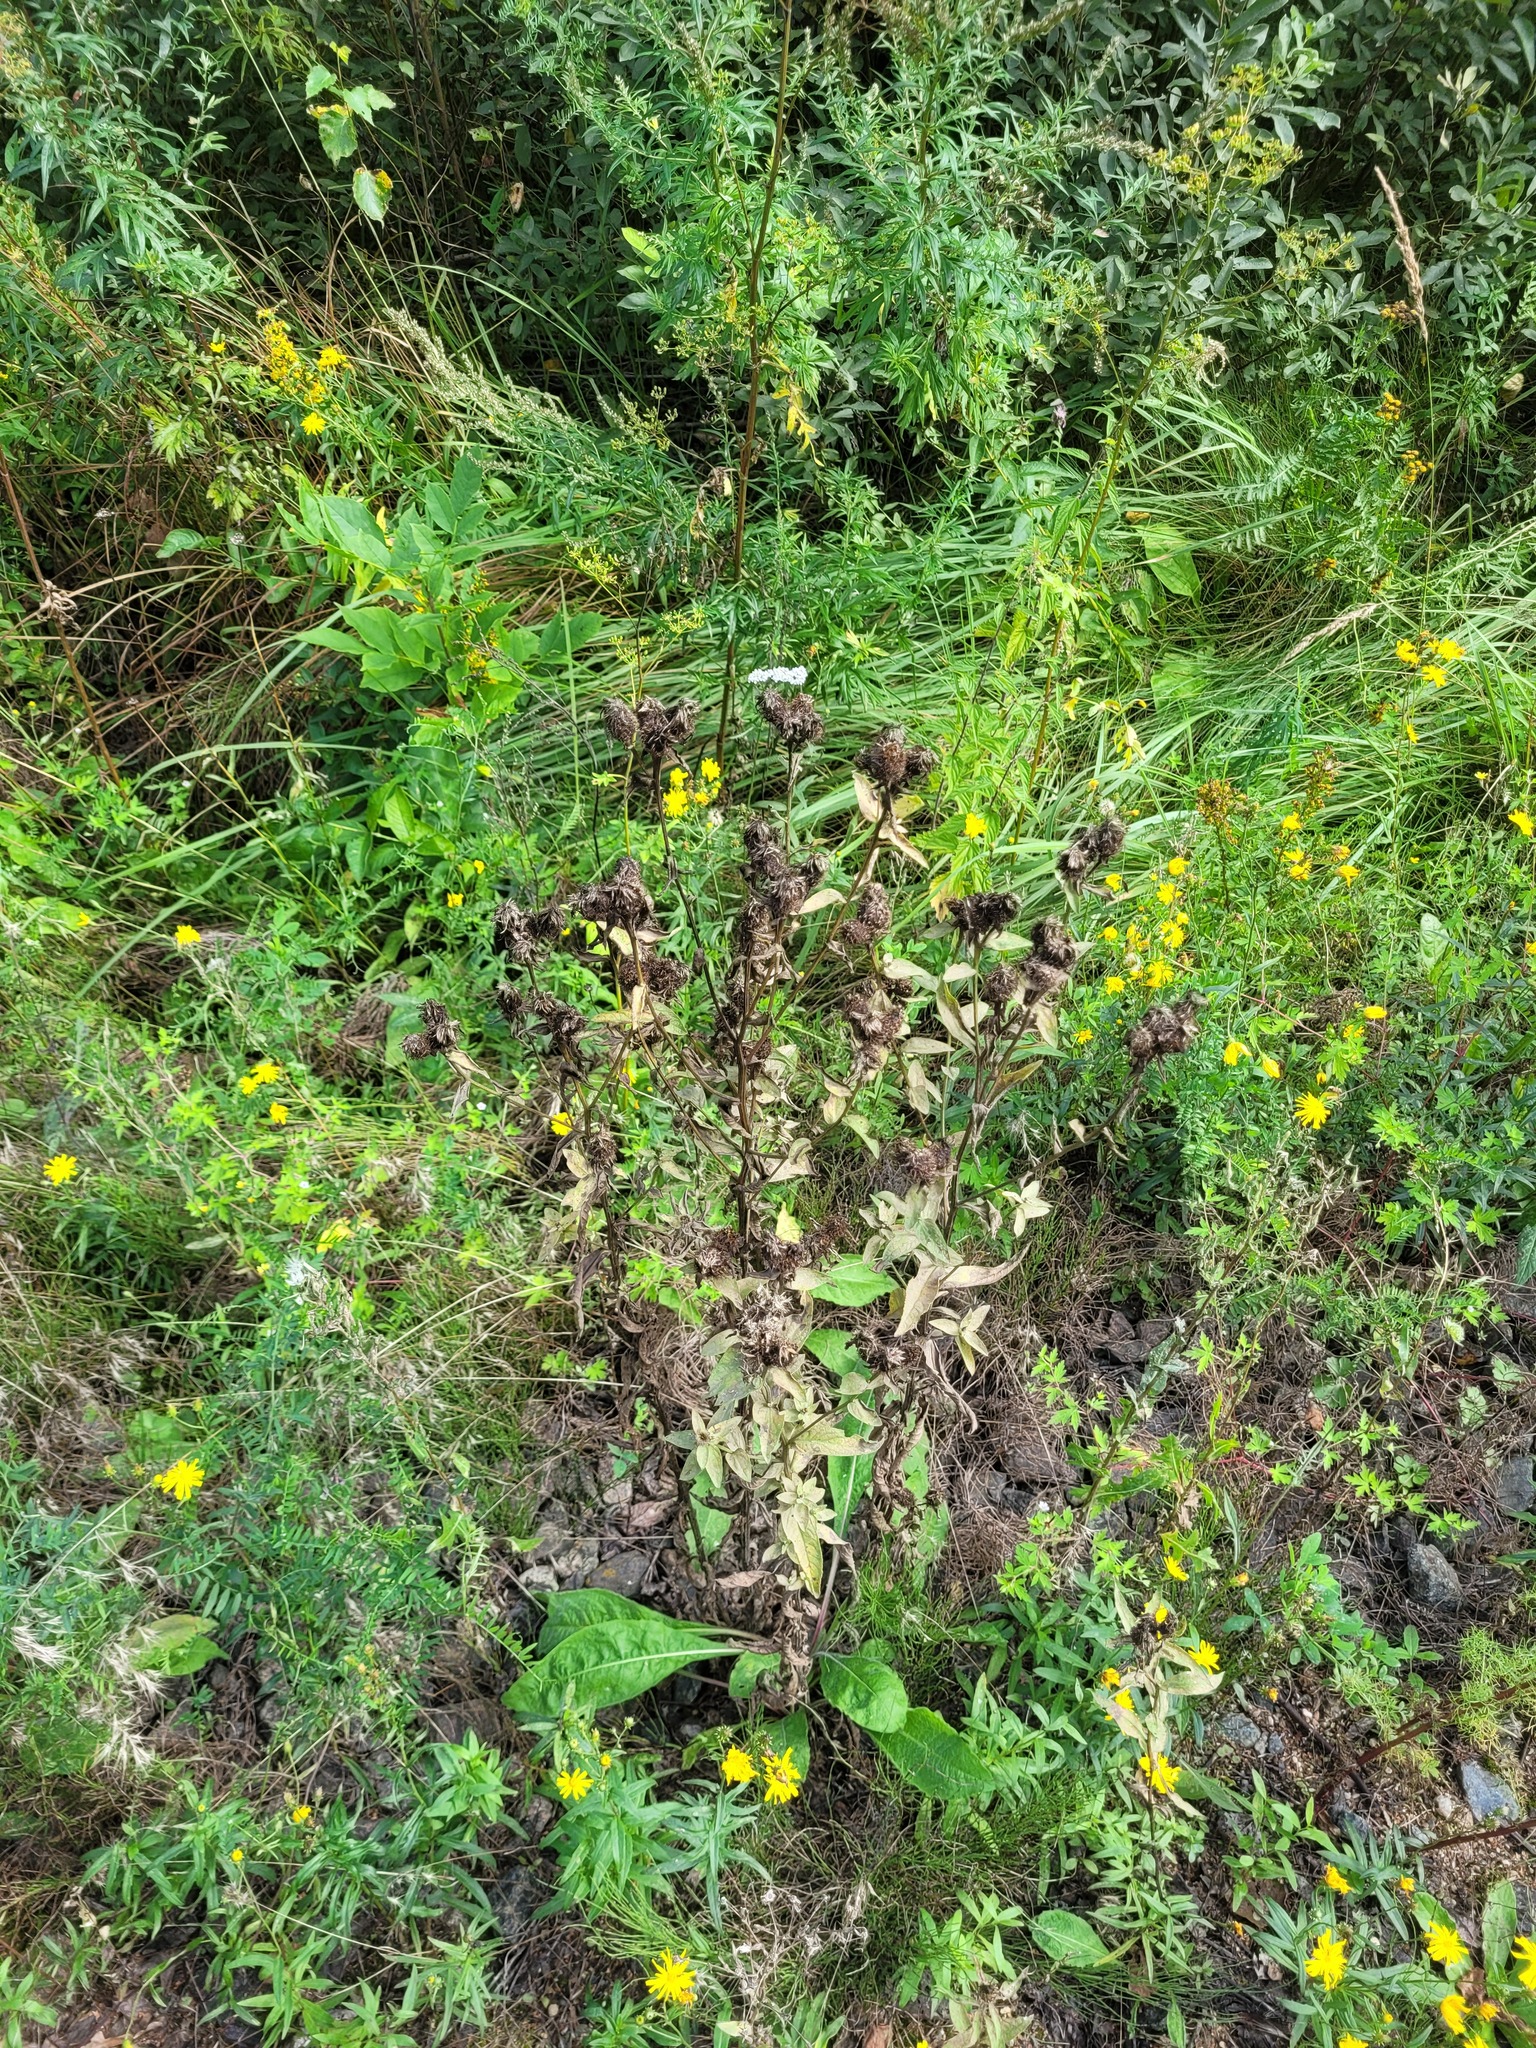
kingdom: Plantae
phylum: Tracheophyta
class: Magnoliopsida
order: Asterales
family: Asteraceae
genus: Centaurea
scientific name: Centaurea pseudophrygia
